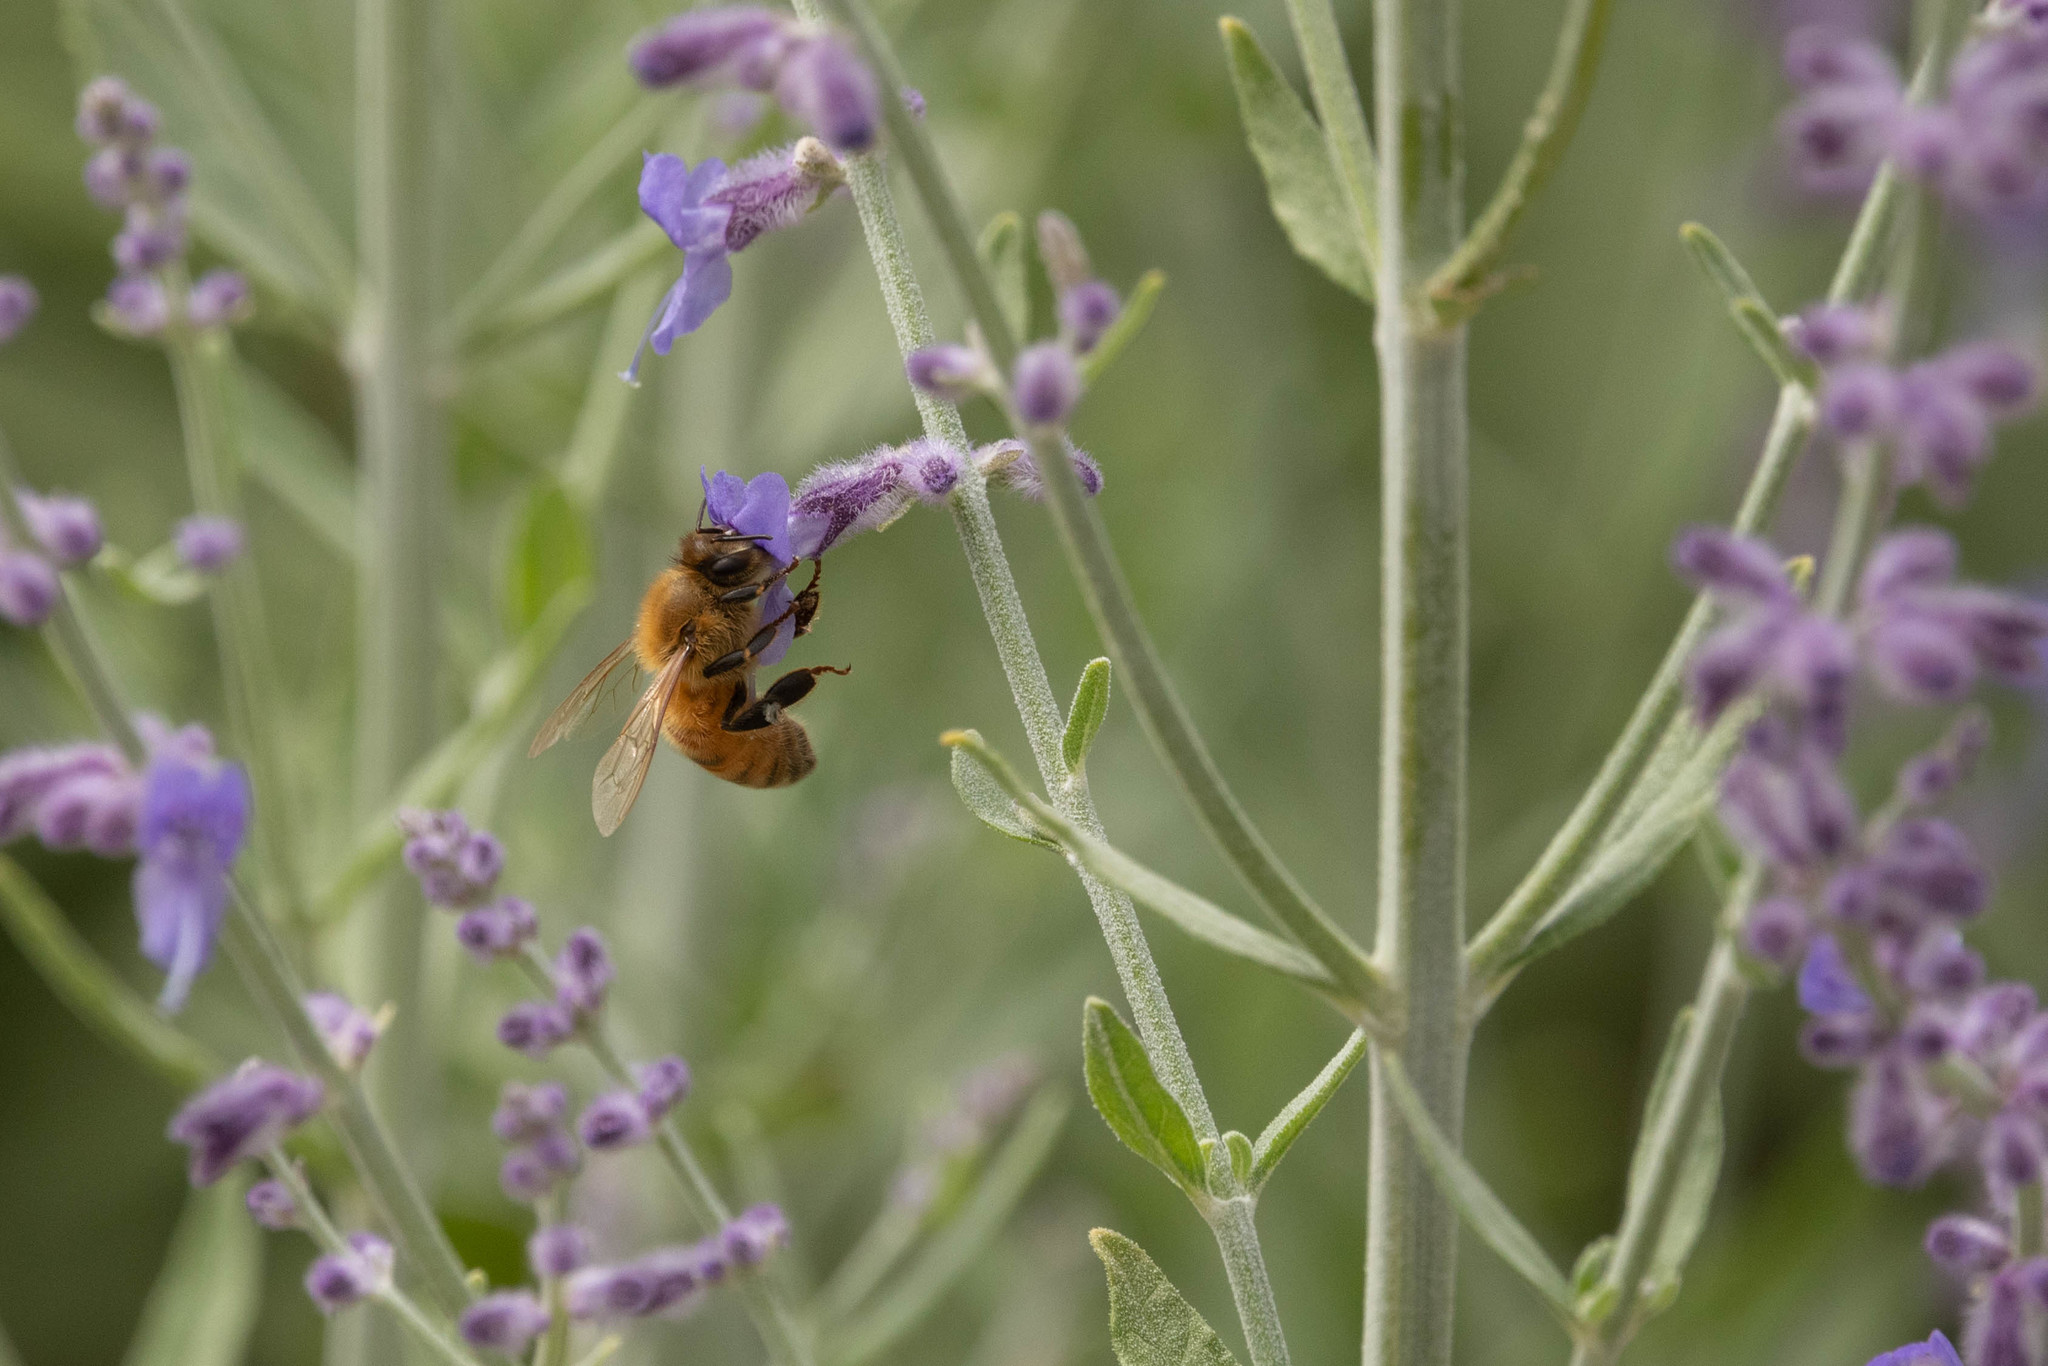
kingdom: Animalia
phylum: Arthropoda
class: Insecta
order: Hymenoptera
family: Apidae
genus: Apis
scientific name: Apis mellifera
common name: Honey bee
